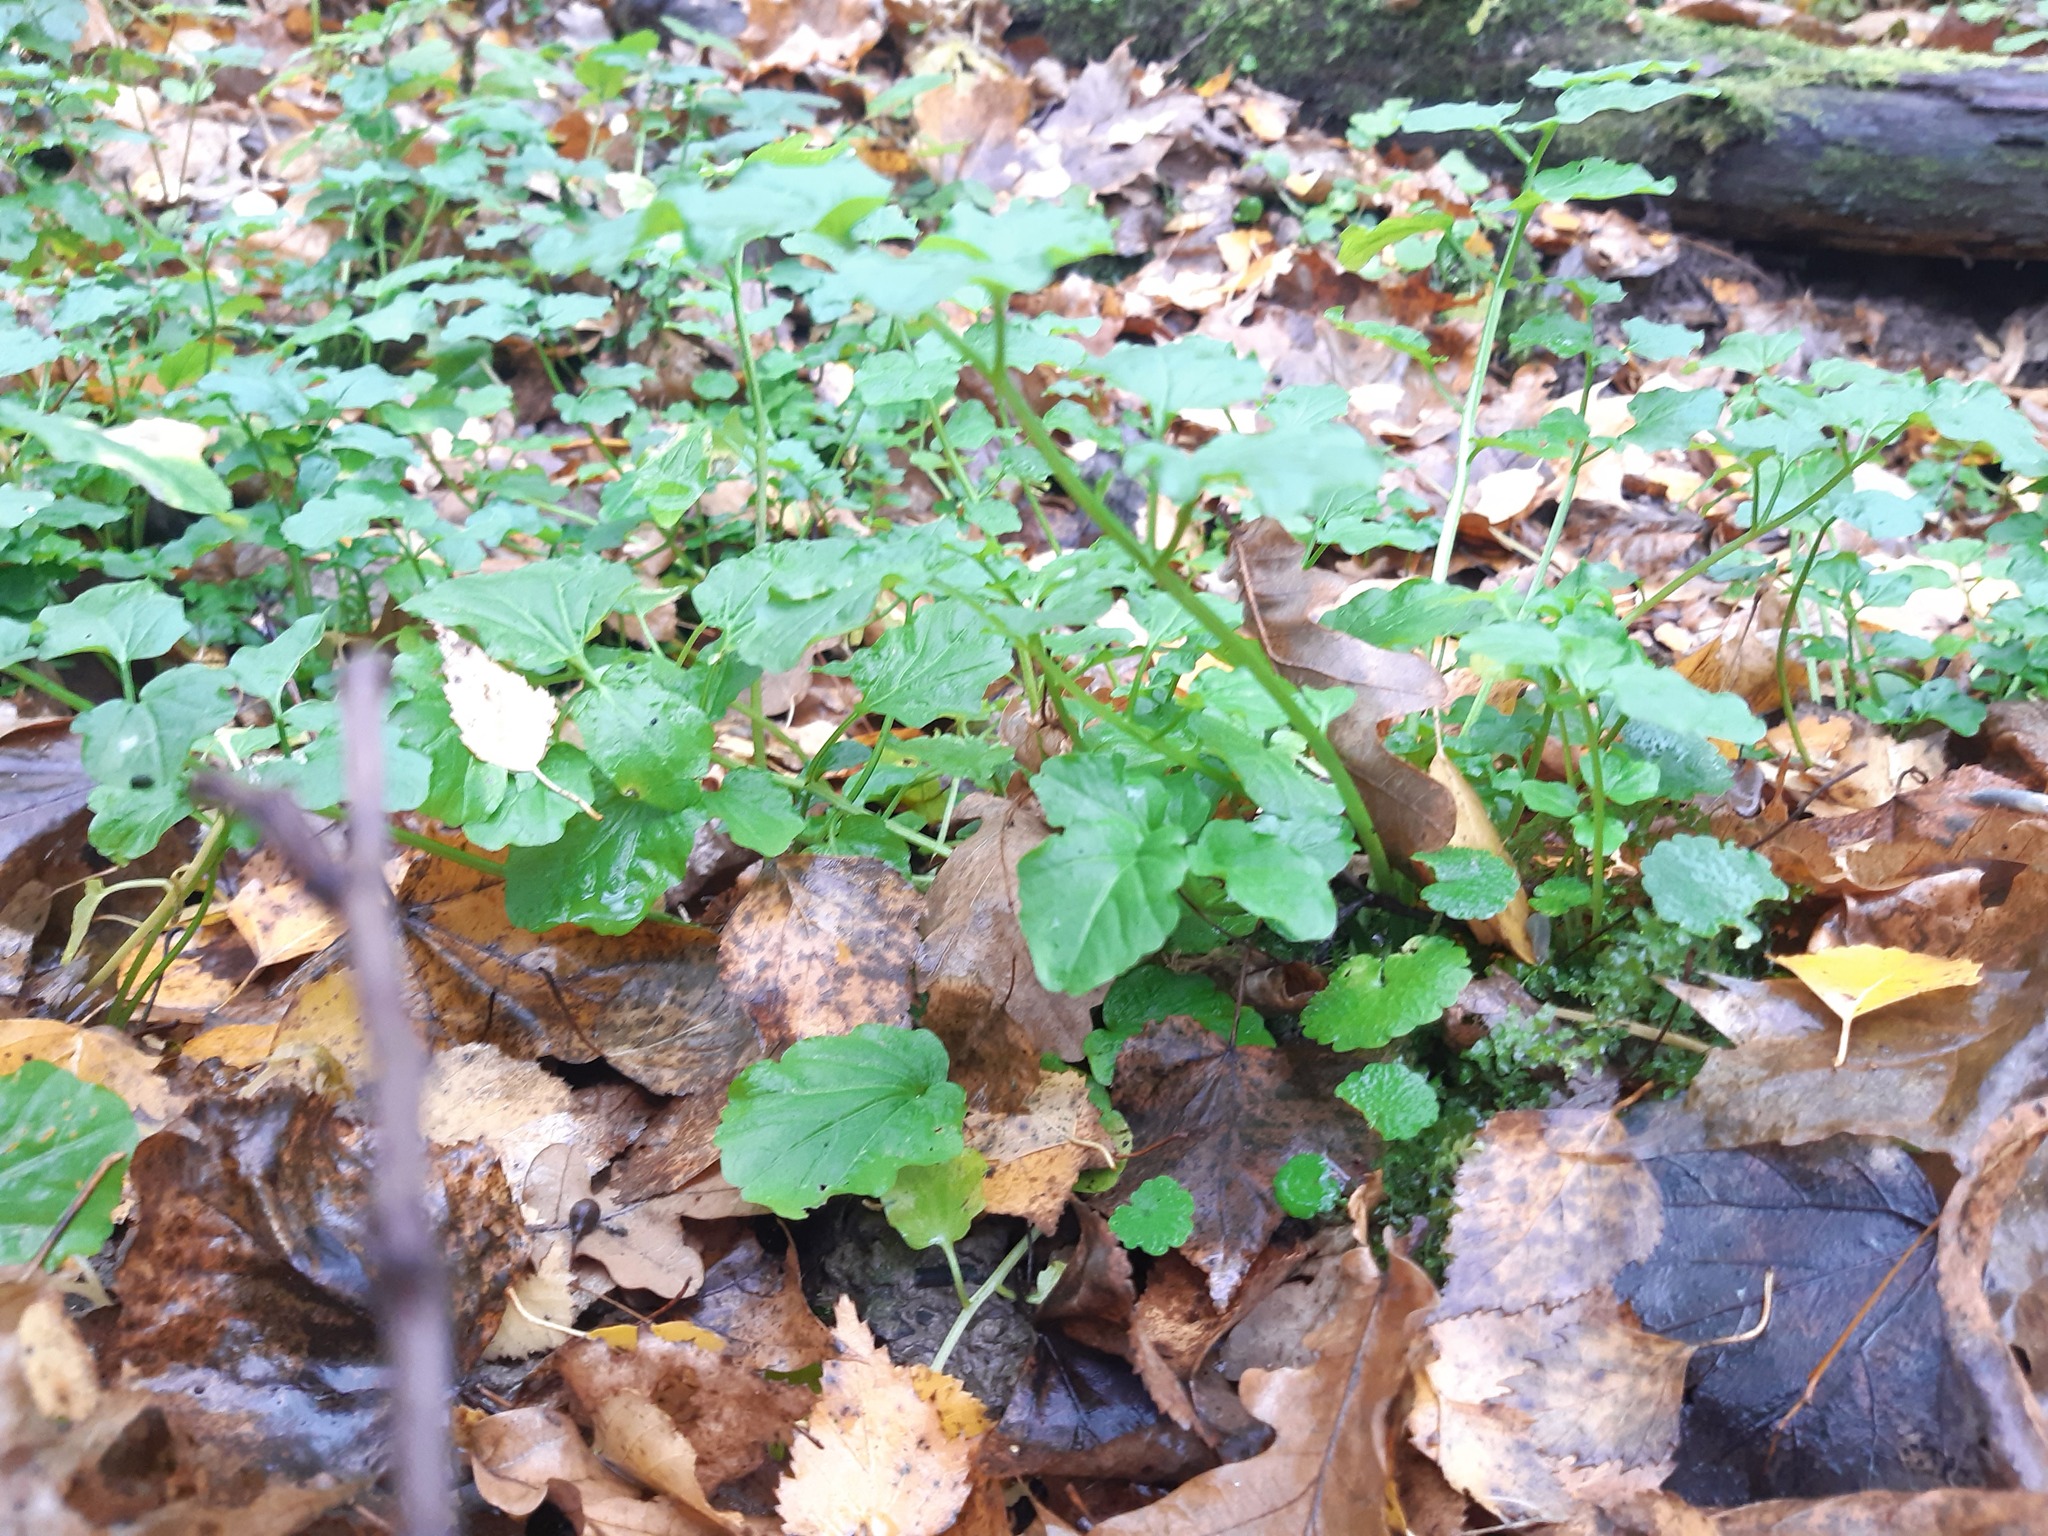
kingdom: Plantae
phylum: Tracheophyta
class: Magnoliopsida
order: Brassicales
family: Brassicaceae
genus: Cardamine
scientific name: Cardamine amara
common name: Large bitter-cress
